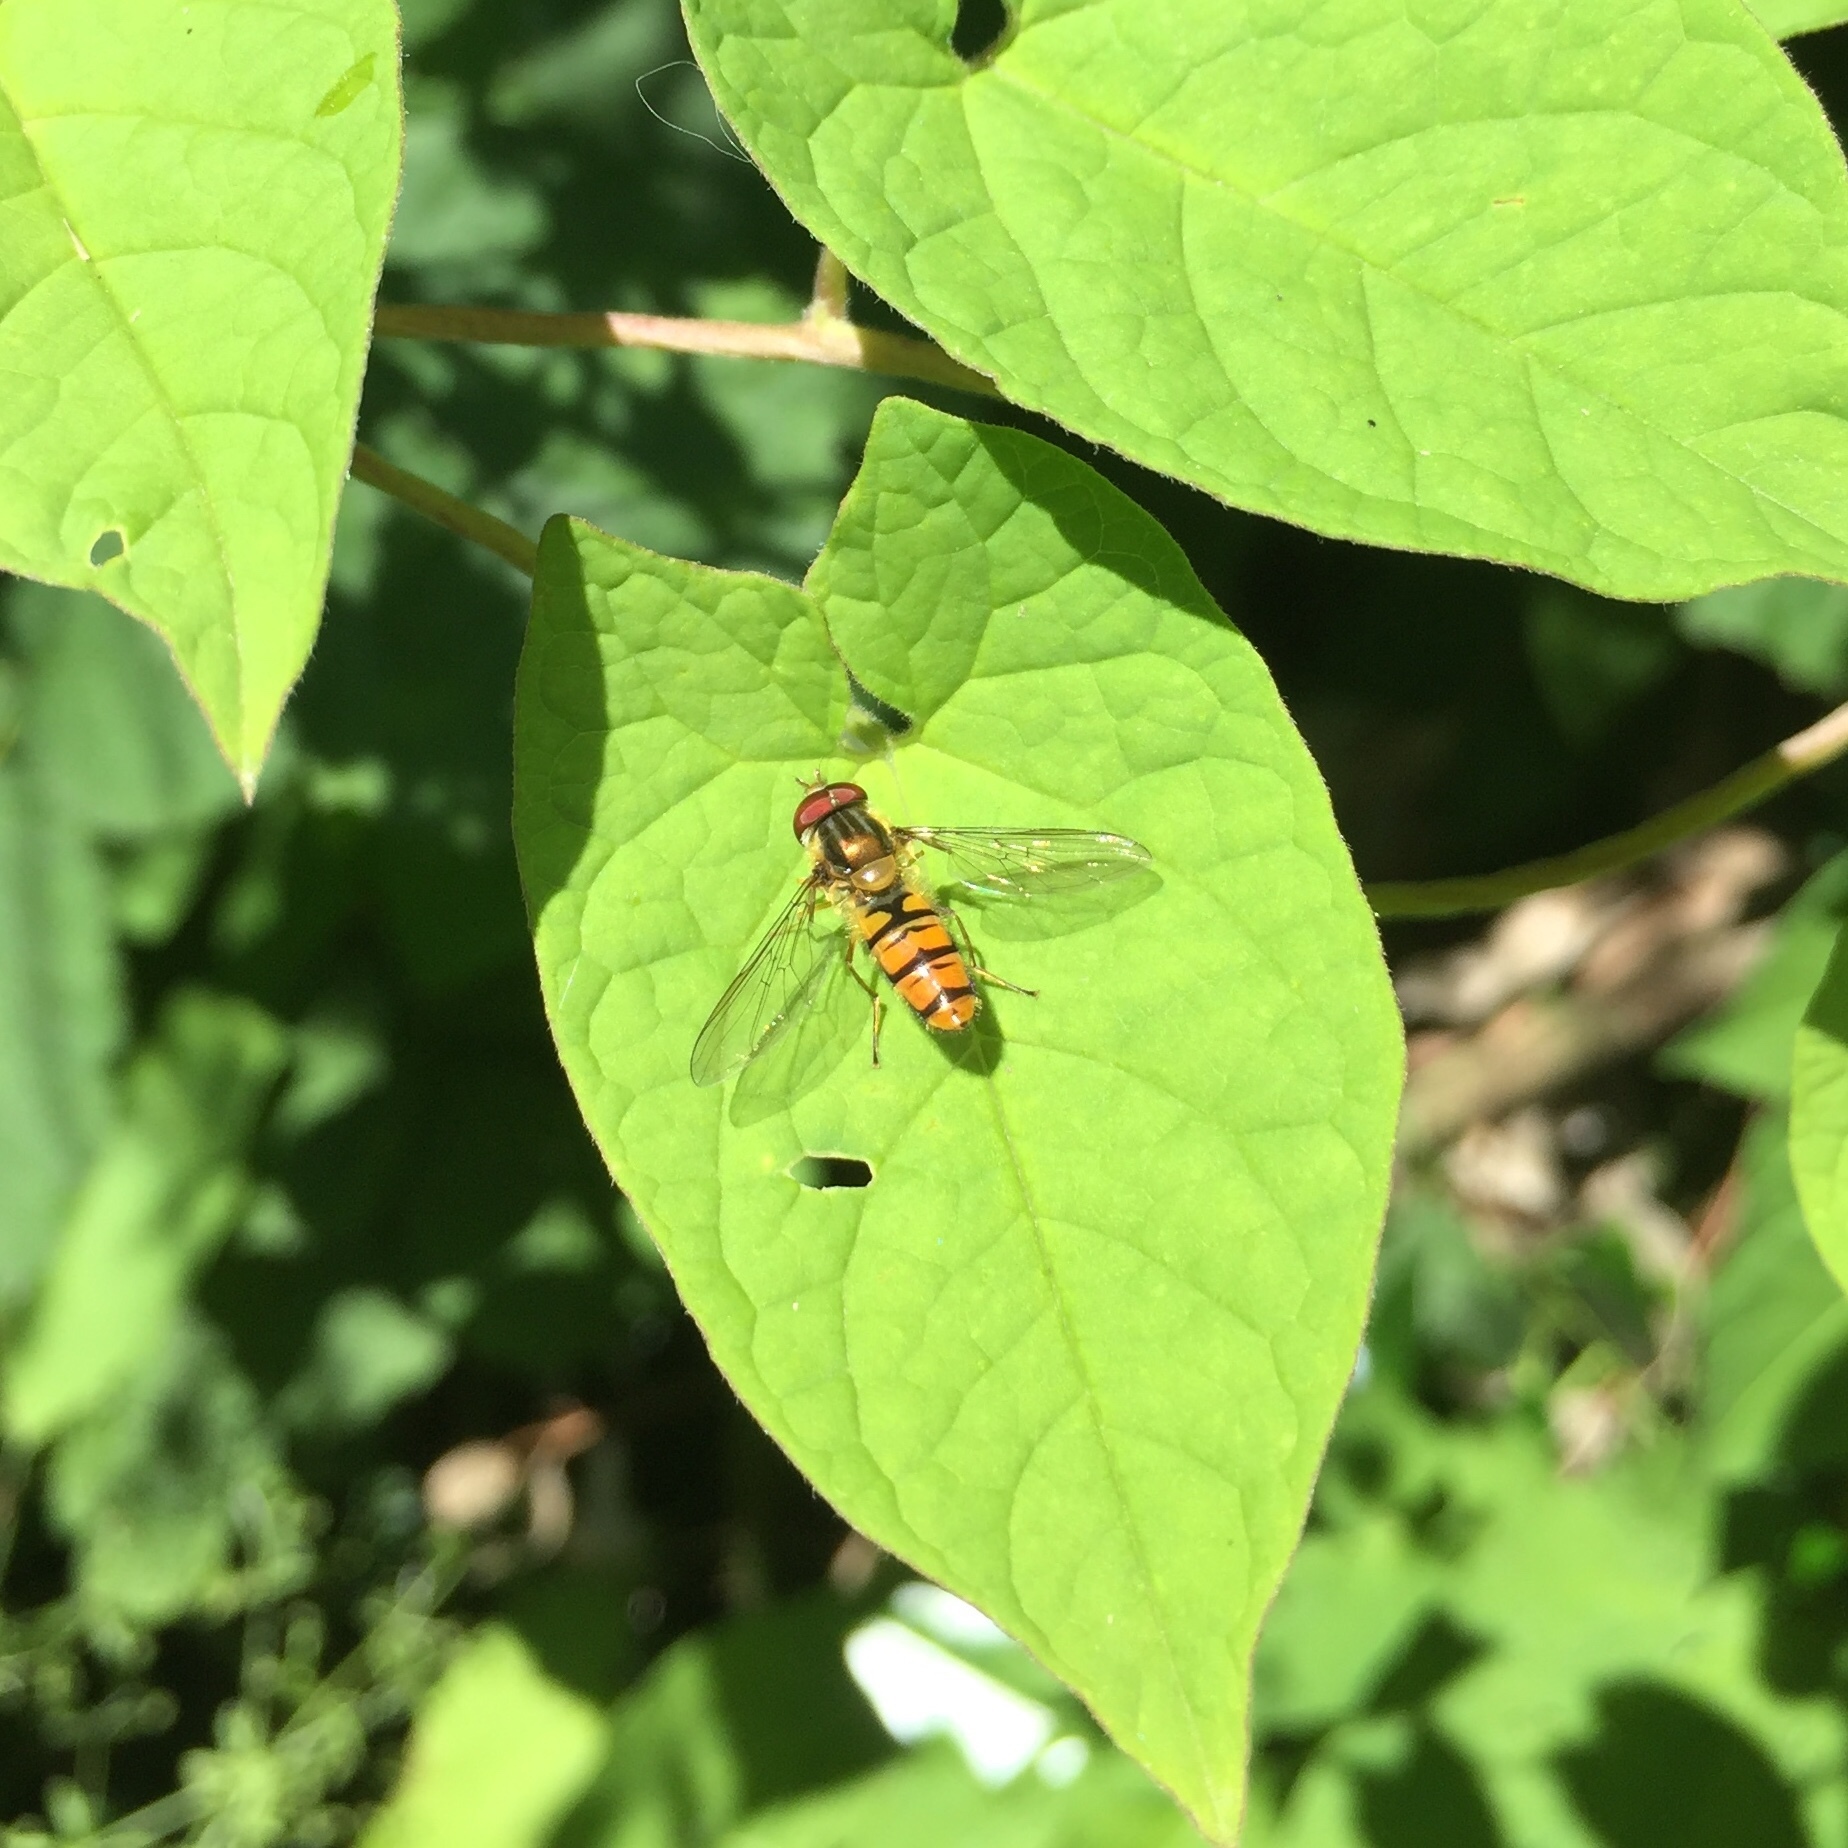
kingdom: Animalia
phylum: Arthropoda
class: Insecta
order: Diptera
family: Syrphidae
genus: Episyrphus
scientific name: Episyrphus balteatus
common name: Marmalade hoverfly
